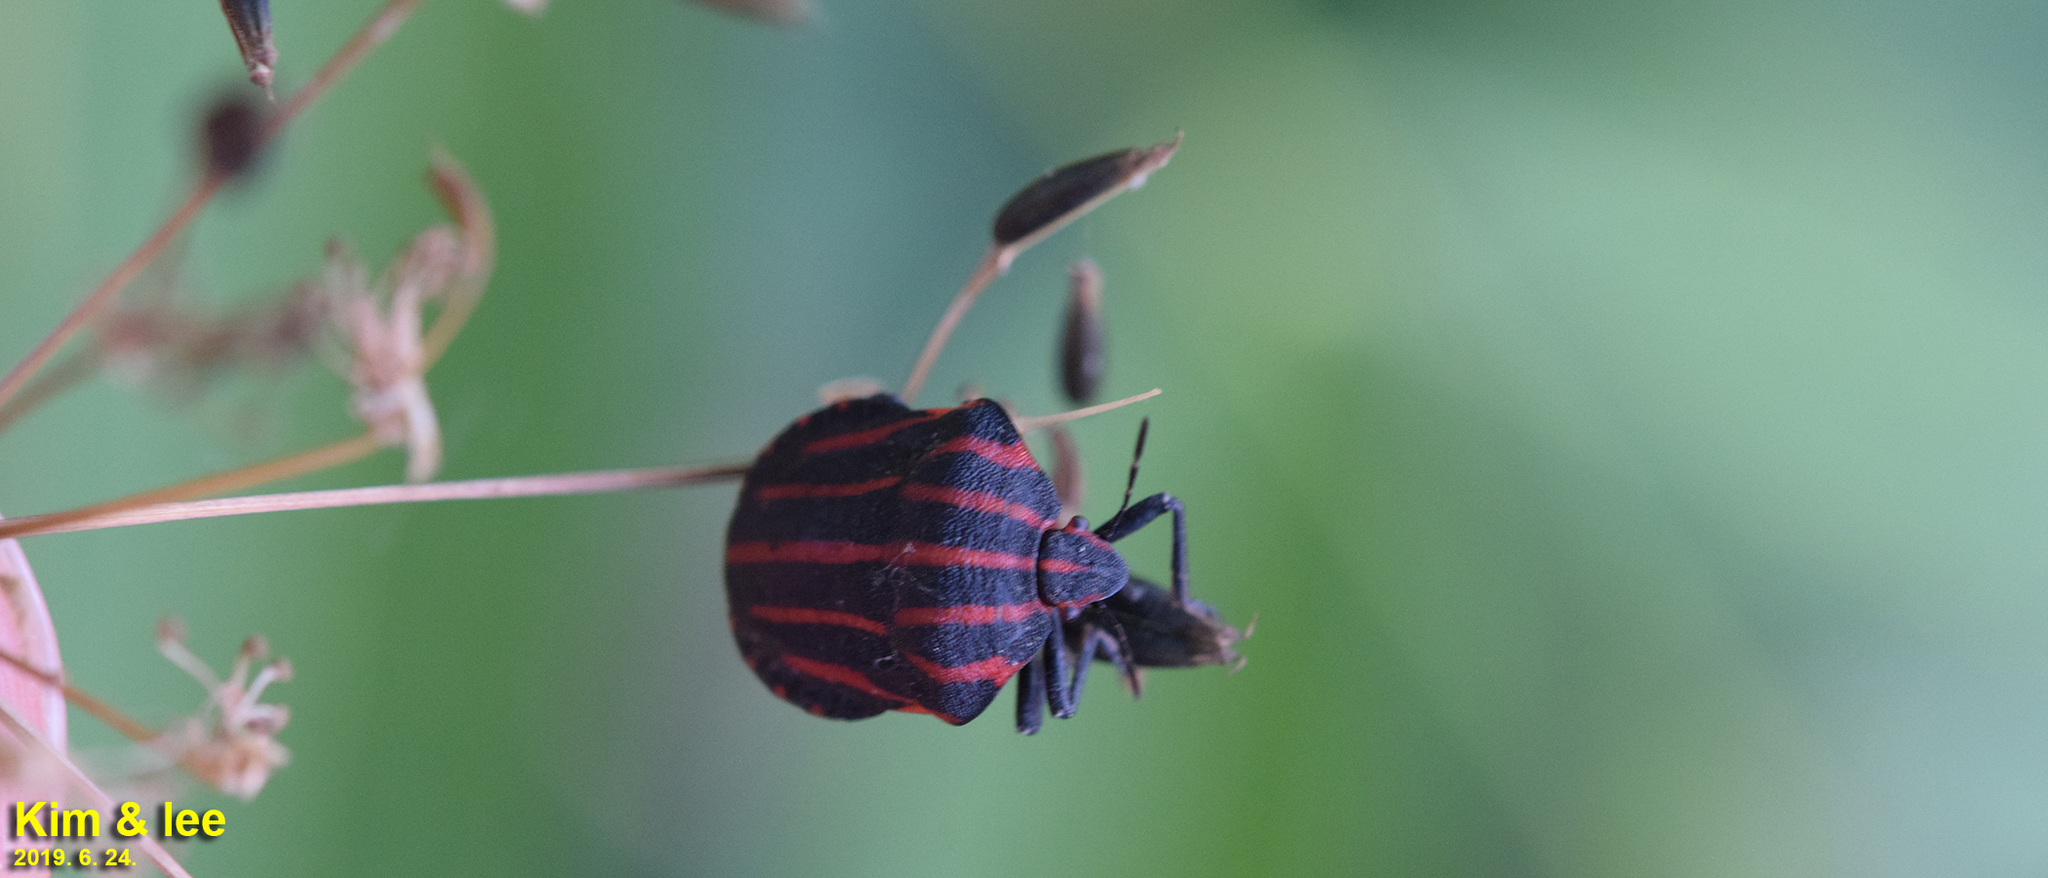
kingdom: Animalia
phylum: Arthropoda
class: Insecta
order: Hemiptera
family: Pentatomidae
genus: Graphosoma
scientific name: Graphosoma rubrolineatum
